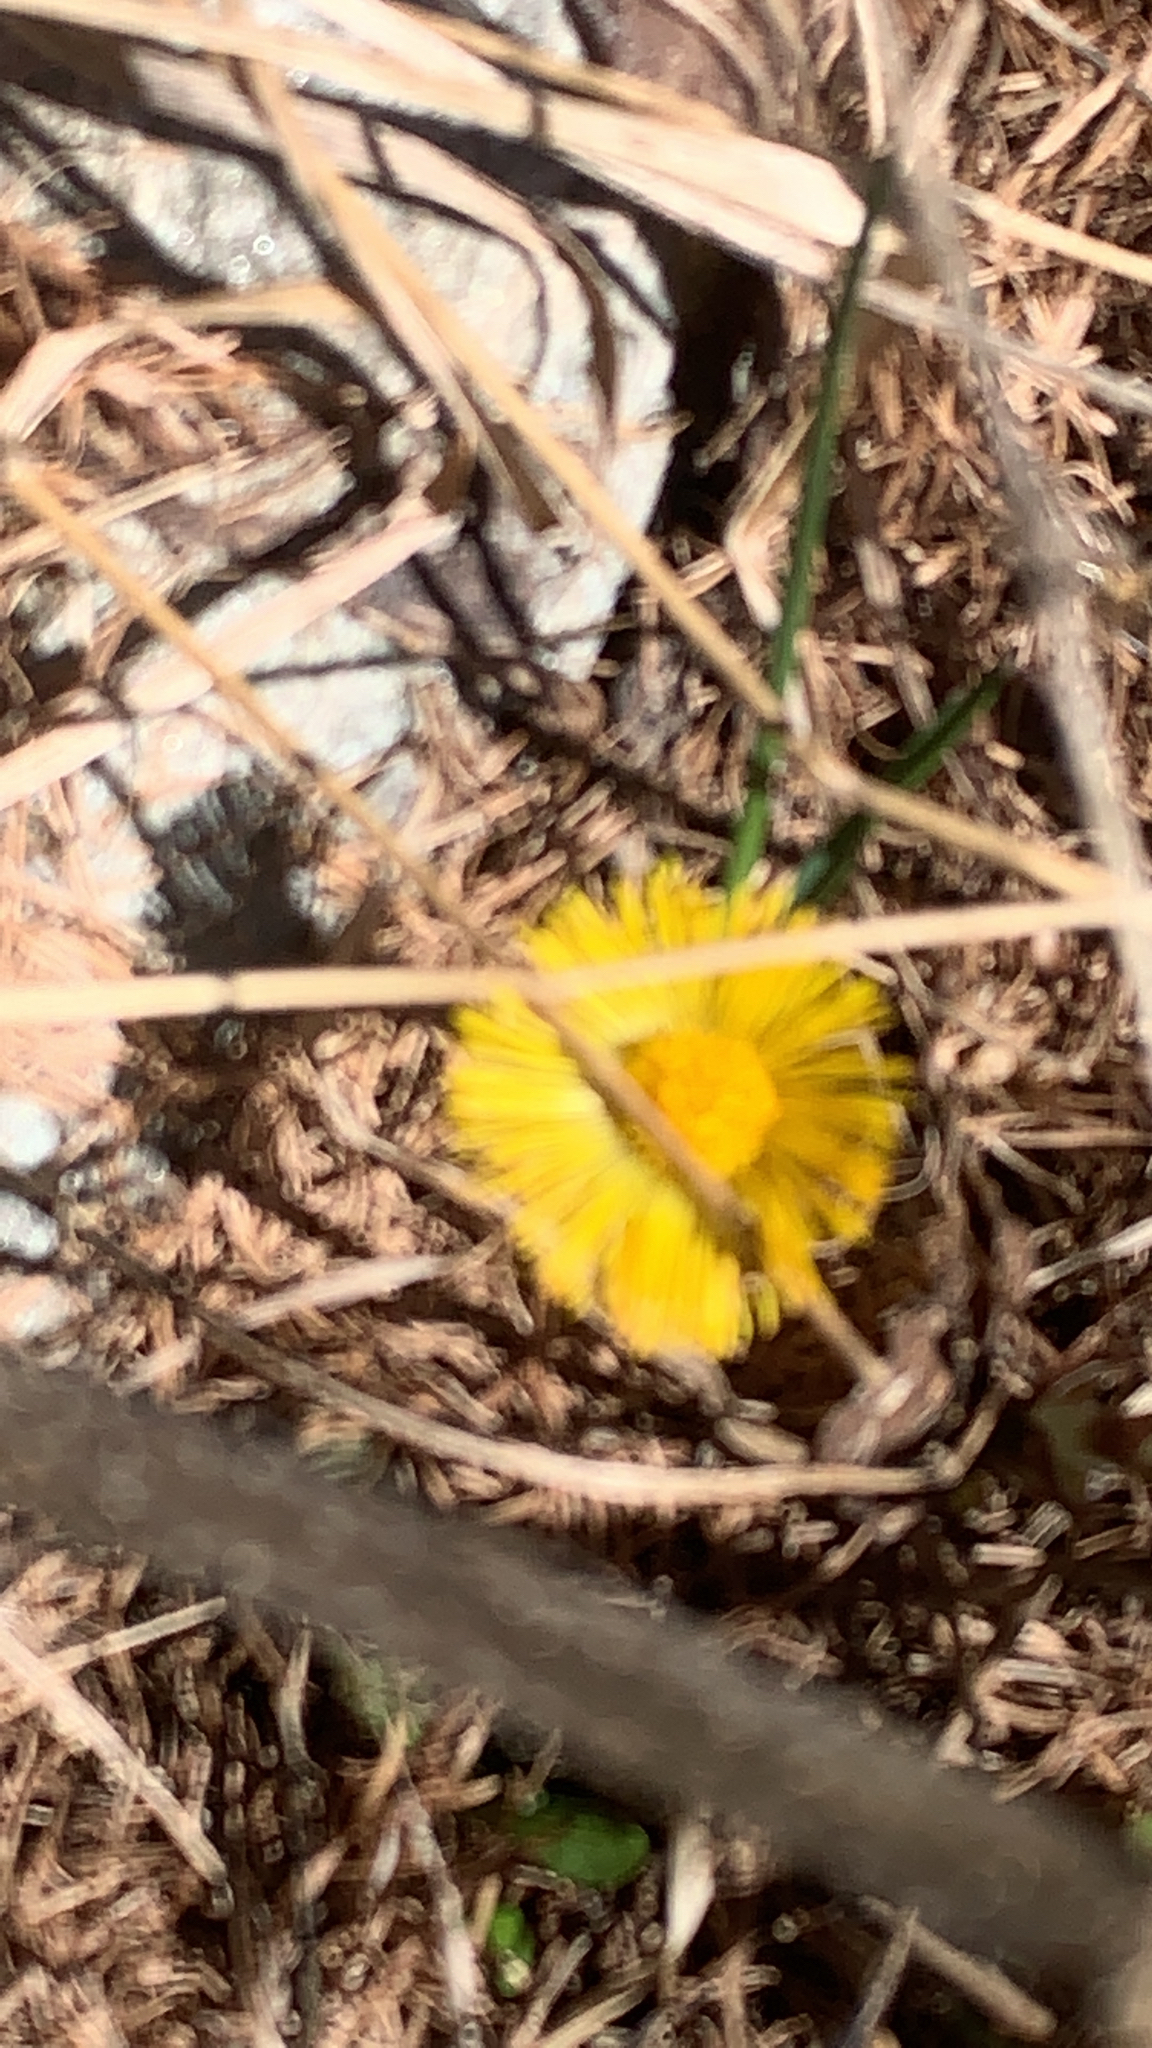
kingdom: Plantae
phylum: Tracheophyta
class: Magnoliopsida
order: Asterales
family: Asteraceae
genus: Tussilago
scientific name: Tussilago farfara
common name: Coltsfoot
